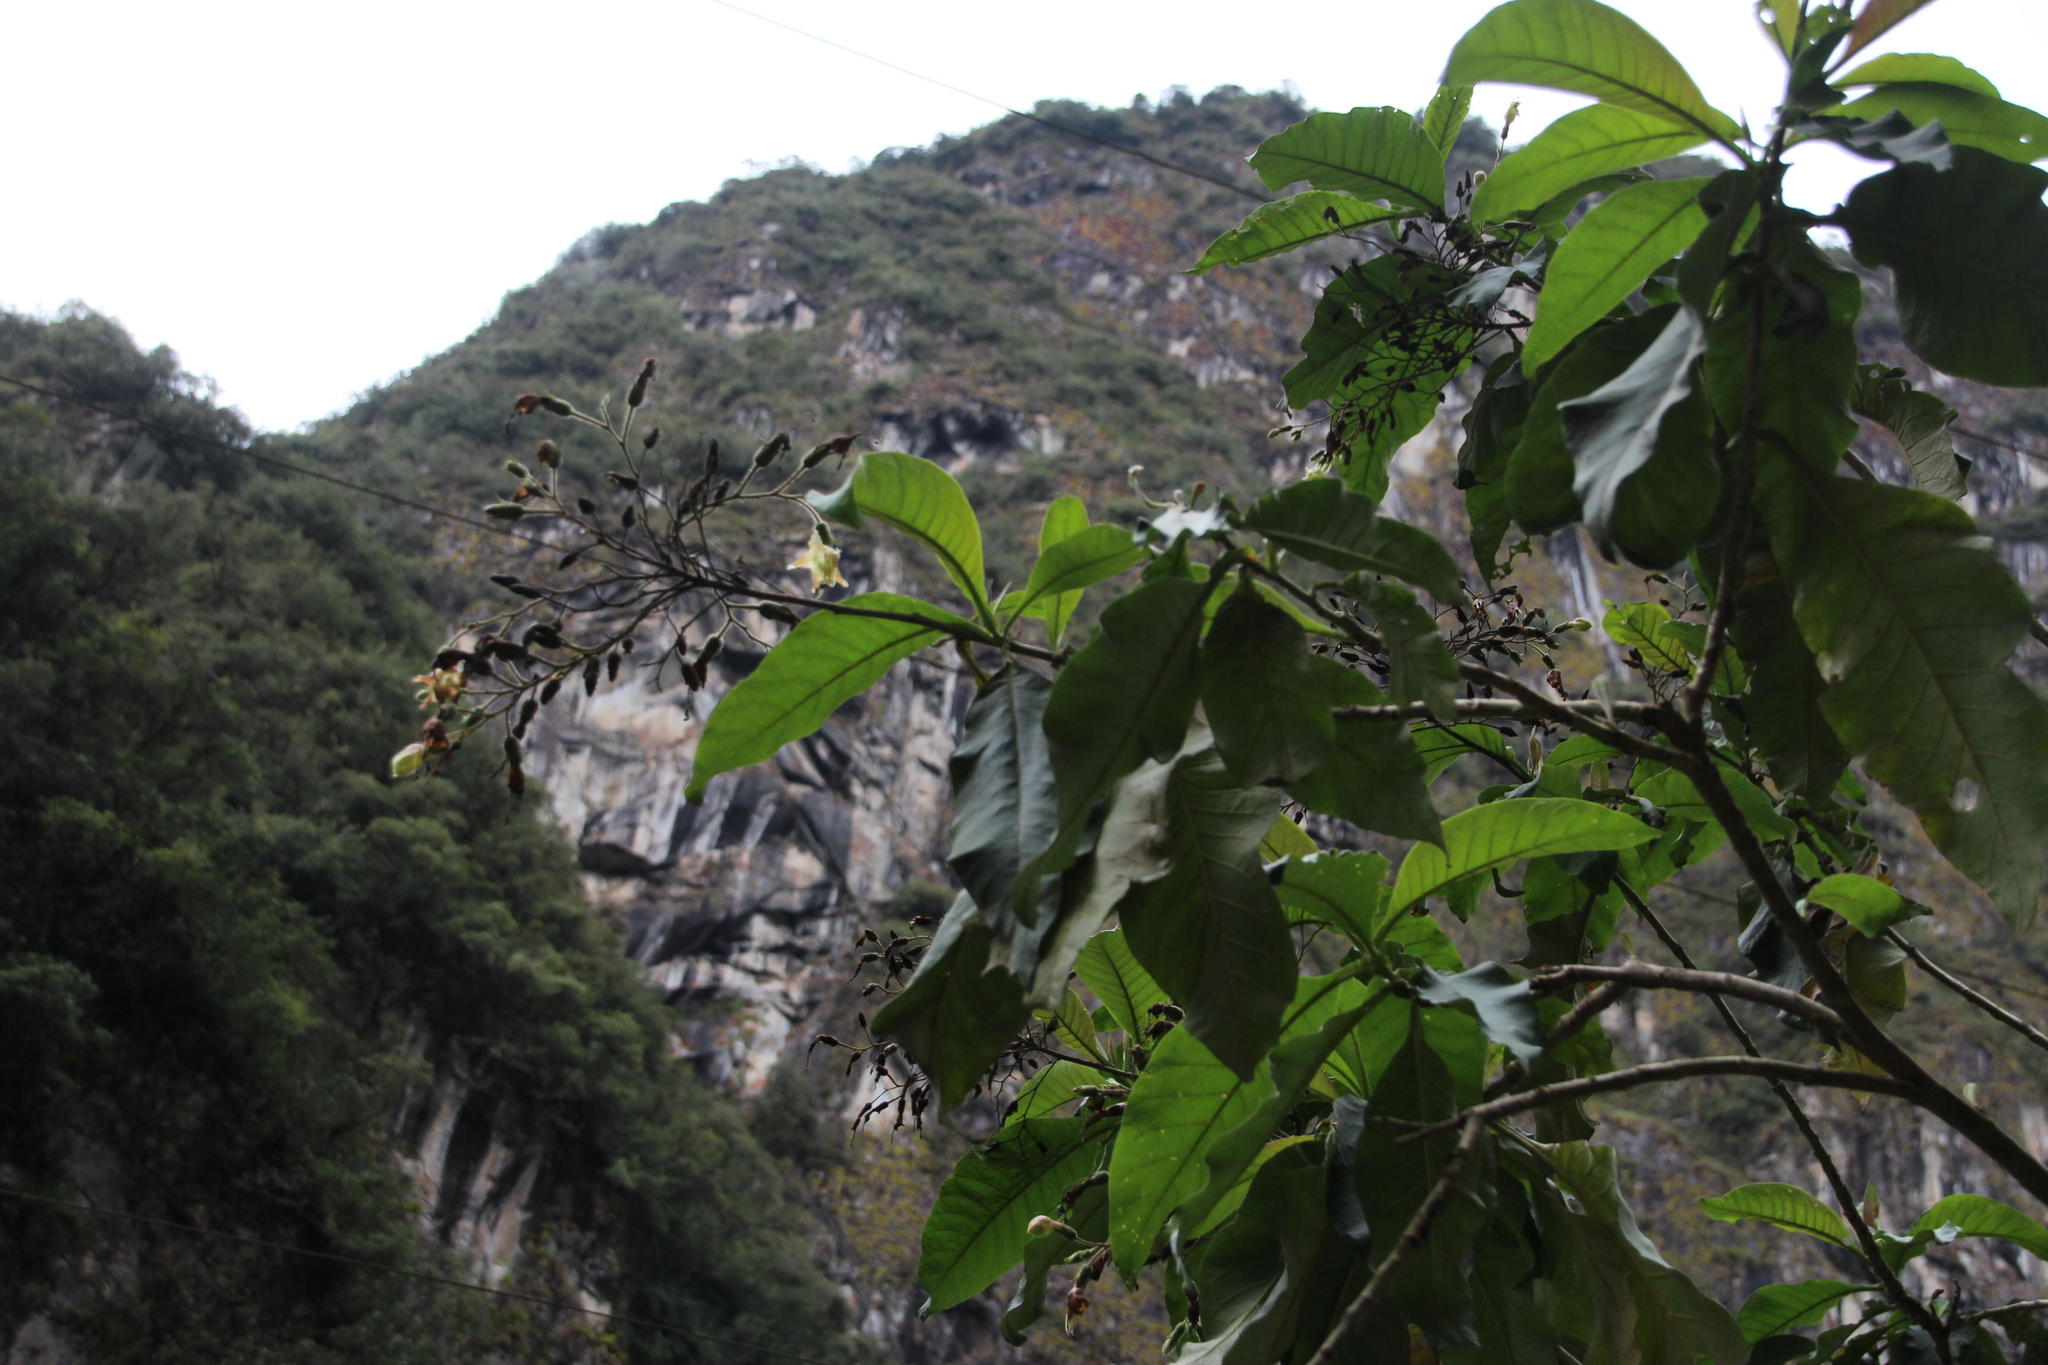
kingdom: Plantae
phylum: Tracheophyta
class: Magnoliopsida
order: Solanales
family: Solanaceae
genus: Nicotiana
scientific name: Nicotiana tomentosa
